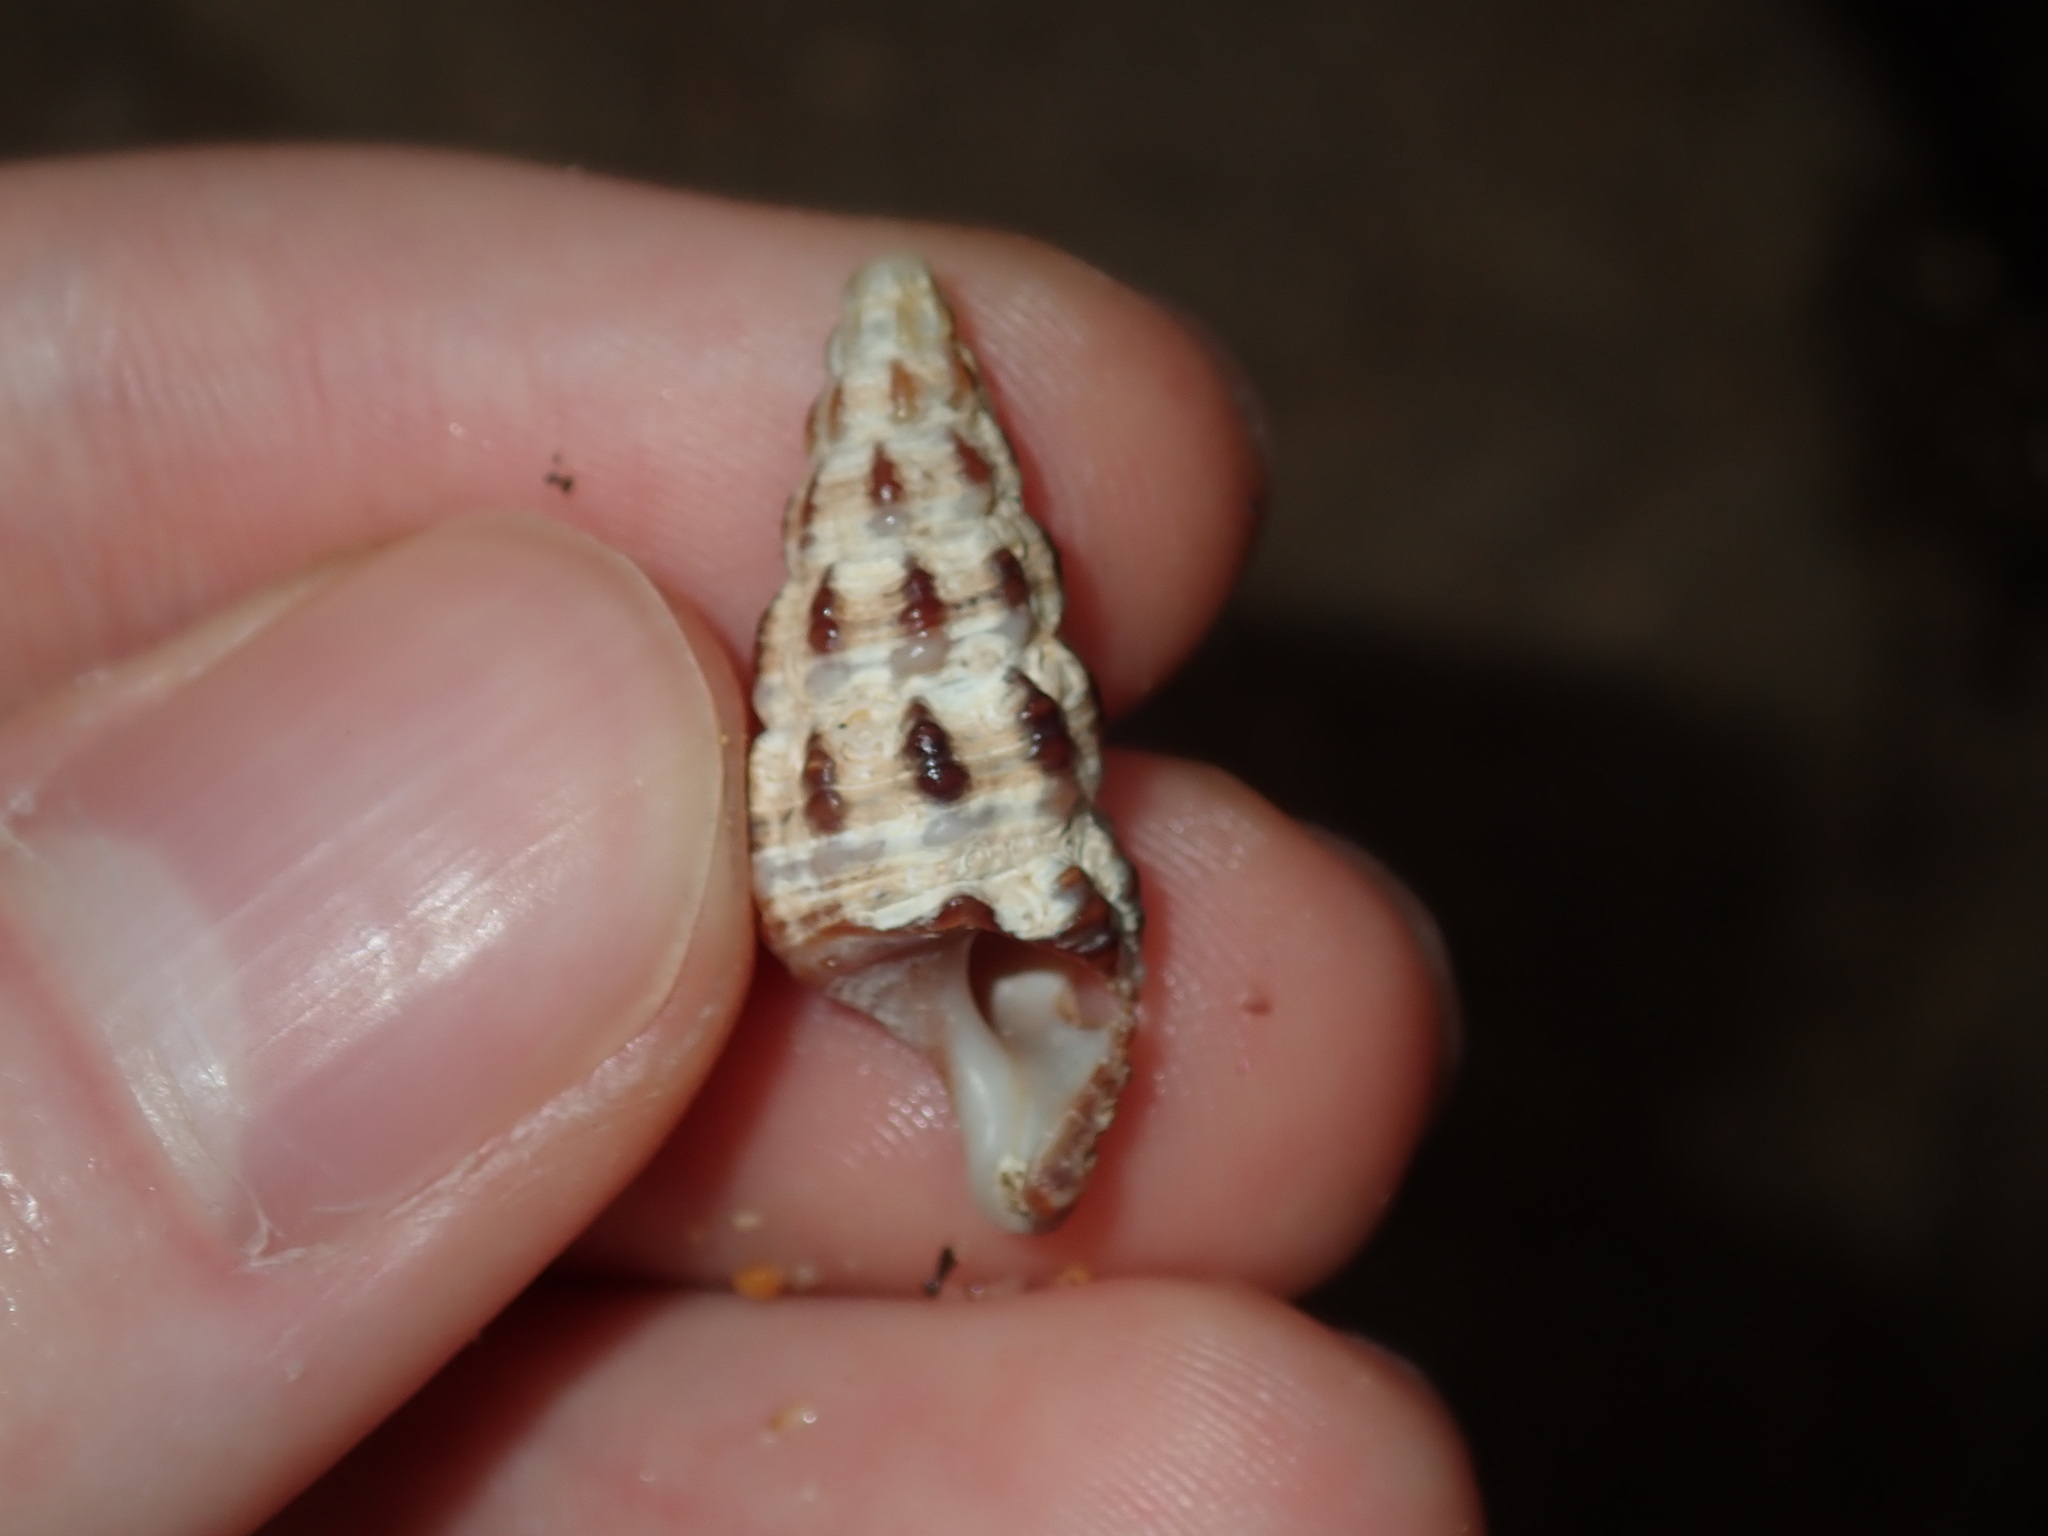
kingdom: Animalia
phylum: Mollusca
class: Gastropoda
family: Batillariidae
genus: Batillaria
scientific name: Batillaria australis
